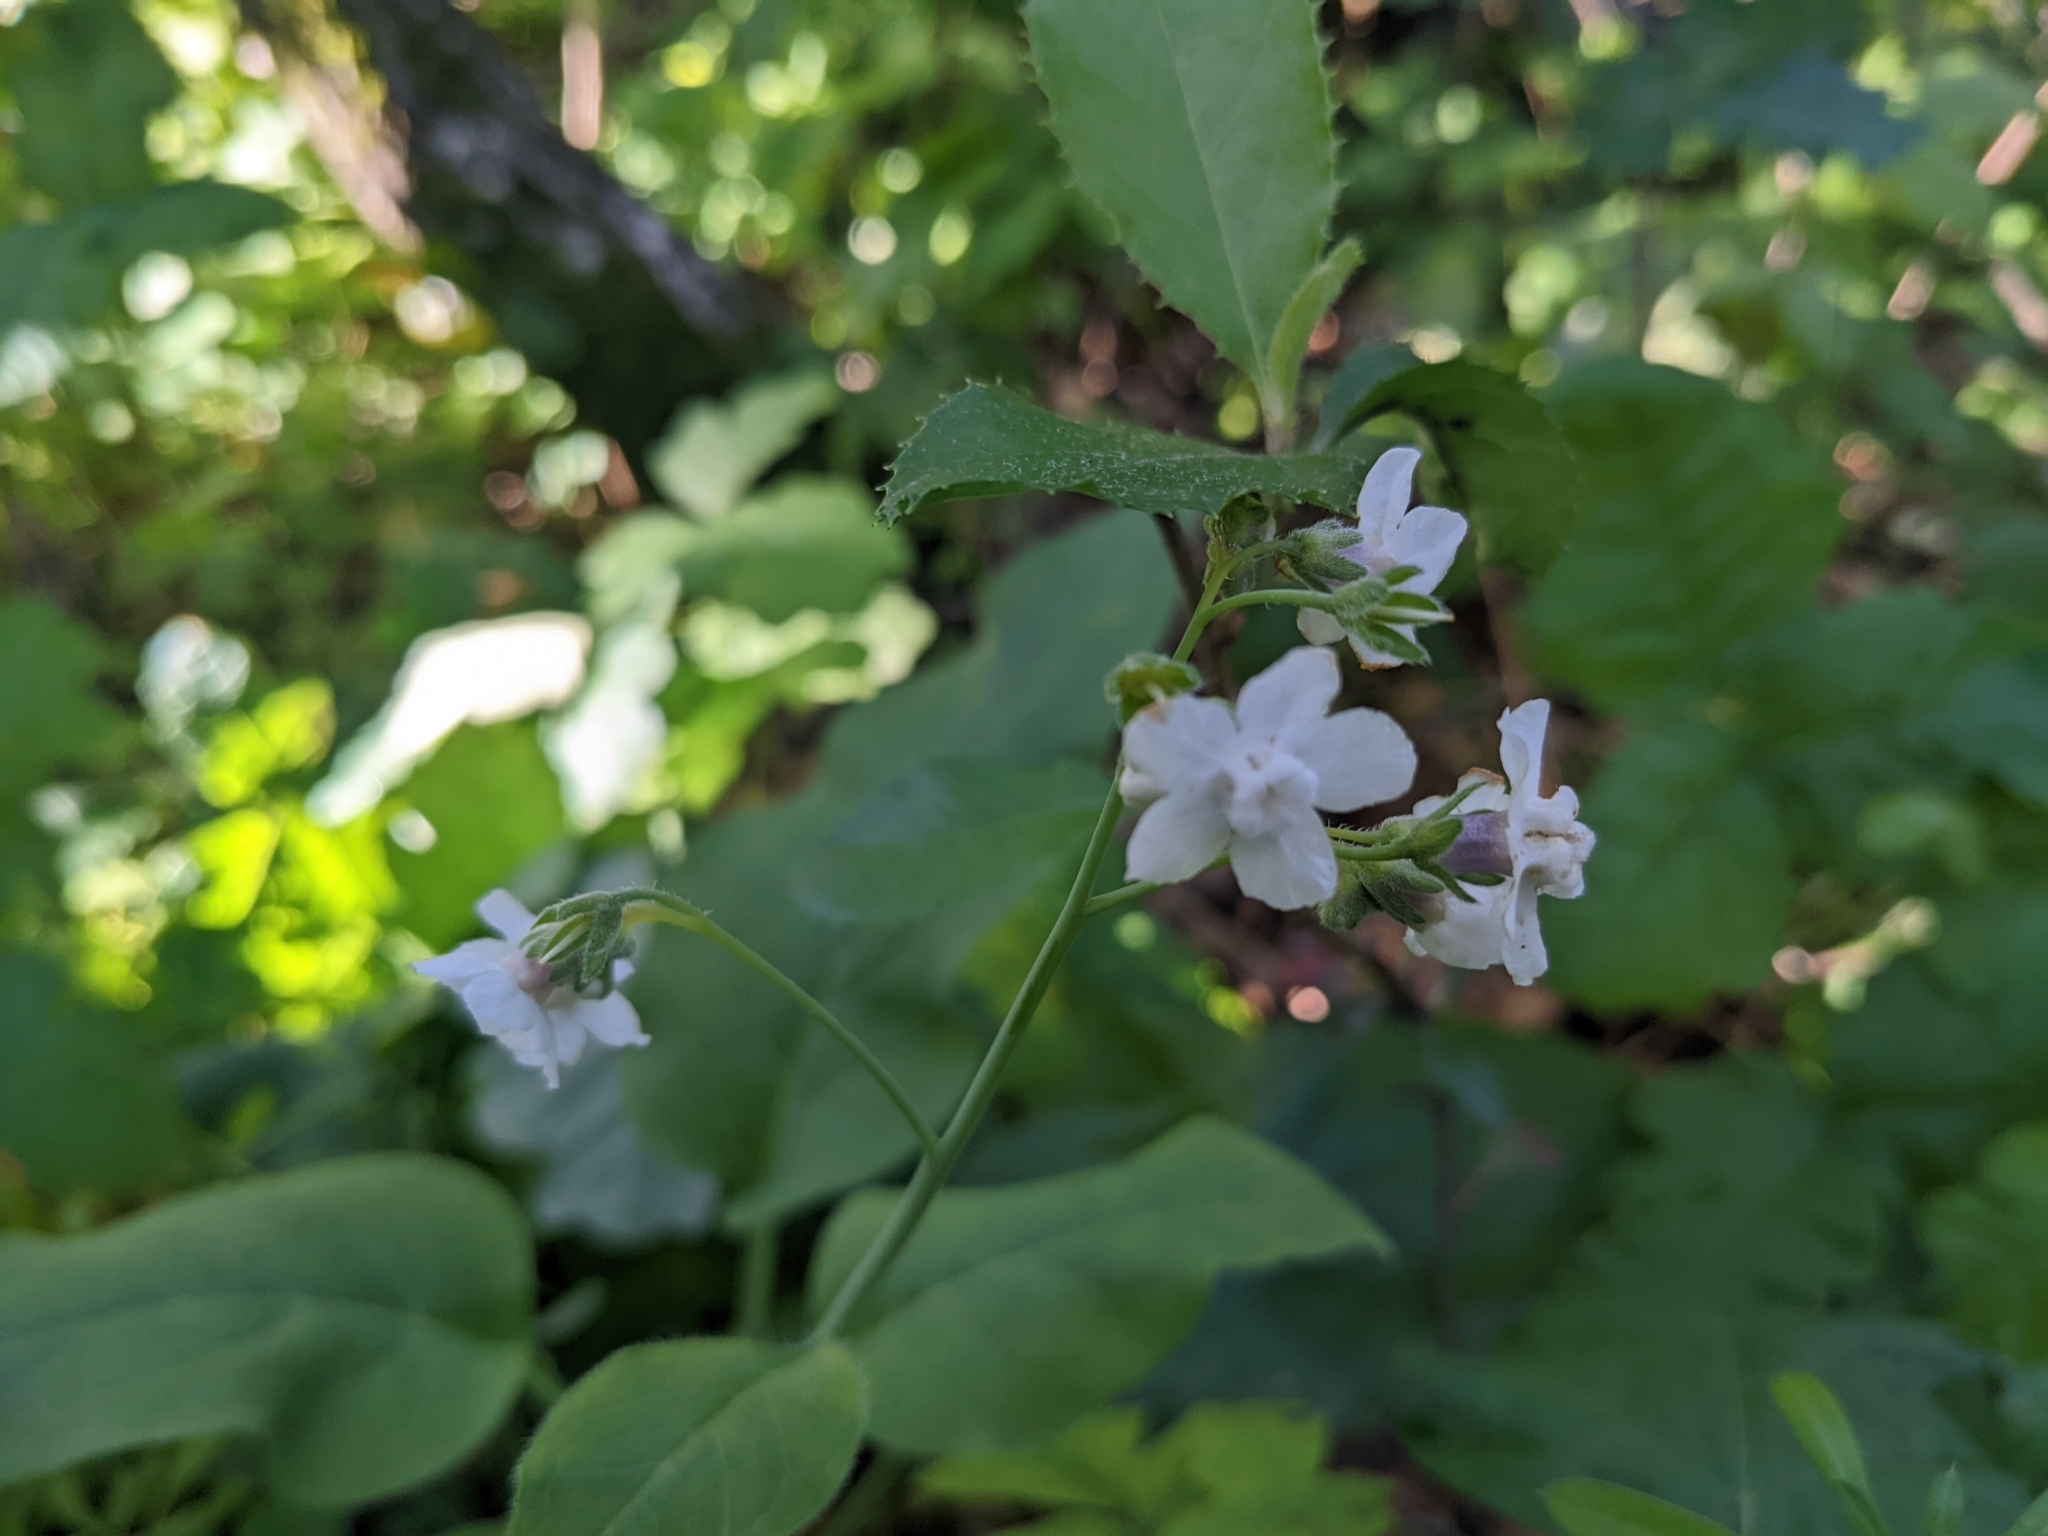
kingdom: Plantae
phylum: Tracheophyta
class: Magnoliopsida
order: Boraginales
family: Boraginaceae
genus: Adelinia
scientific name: Adelinia grande
